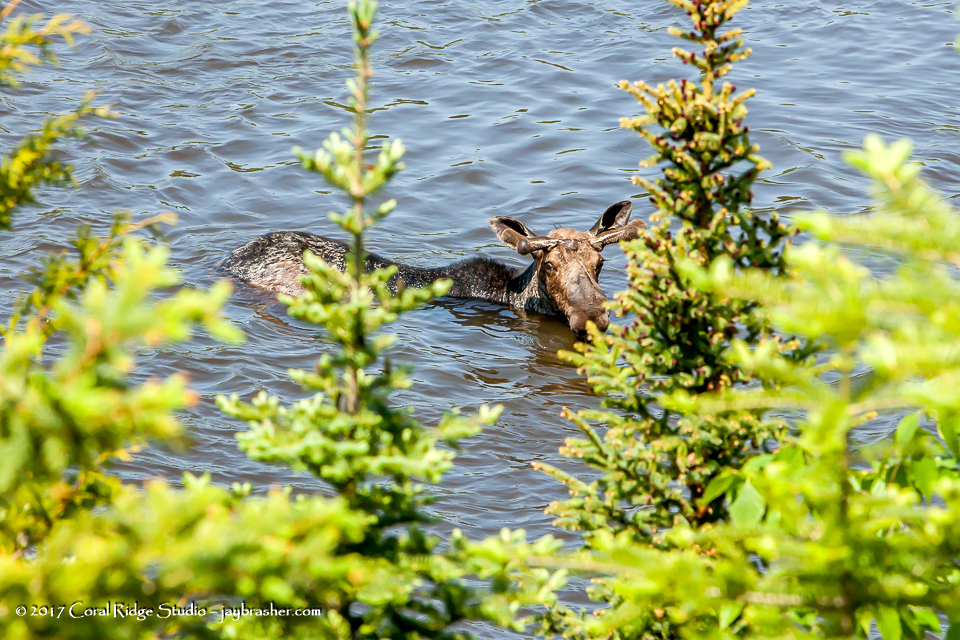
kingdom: Animalia
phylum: Chordata
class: Mammalia
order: Artiodactyla
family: Cervidae
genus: Alces
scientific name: Alces alces
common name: Moose
